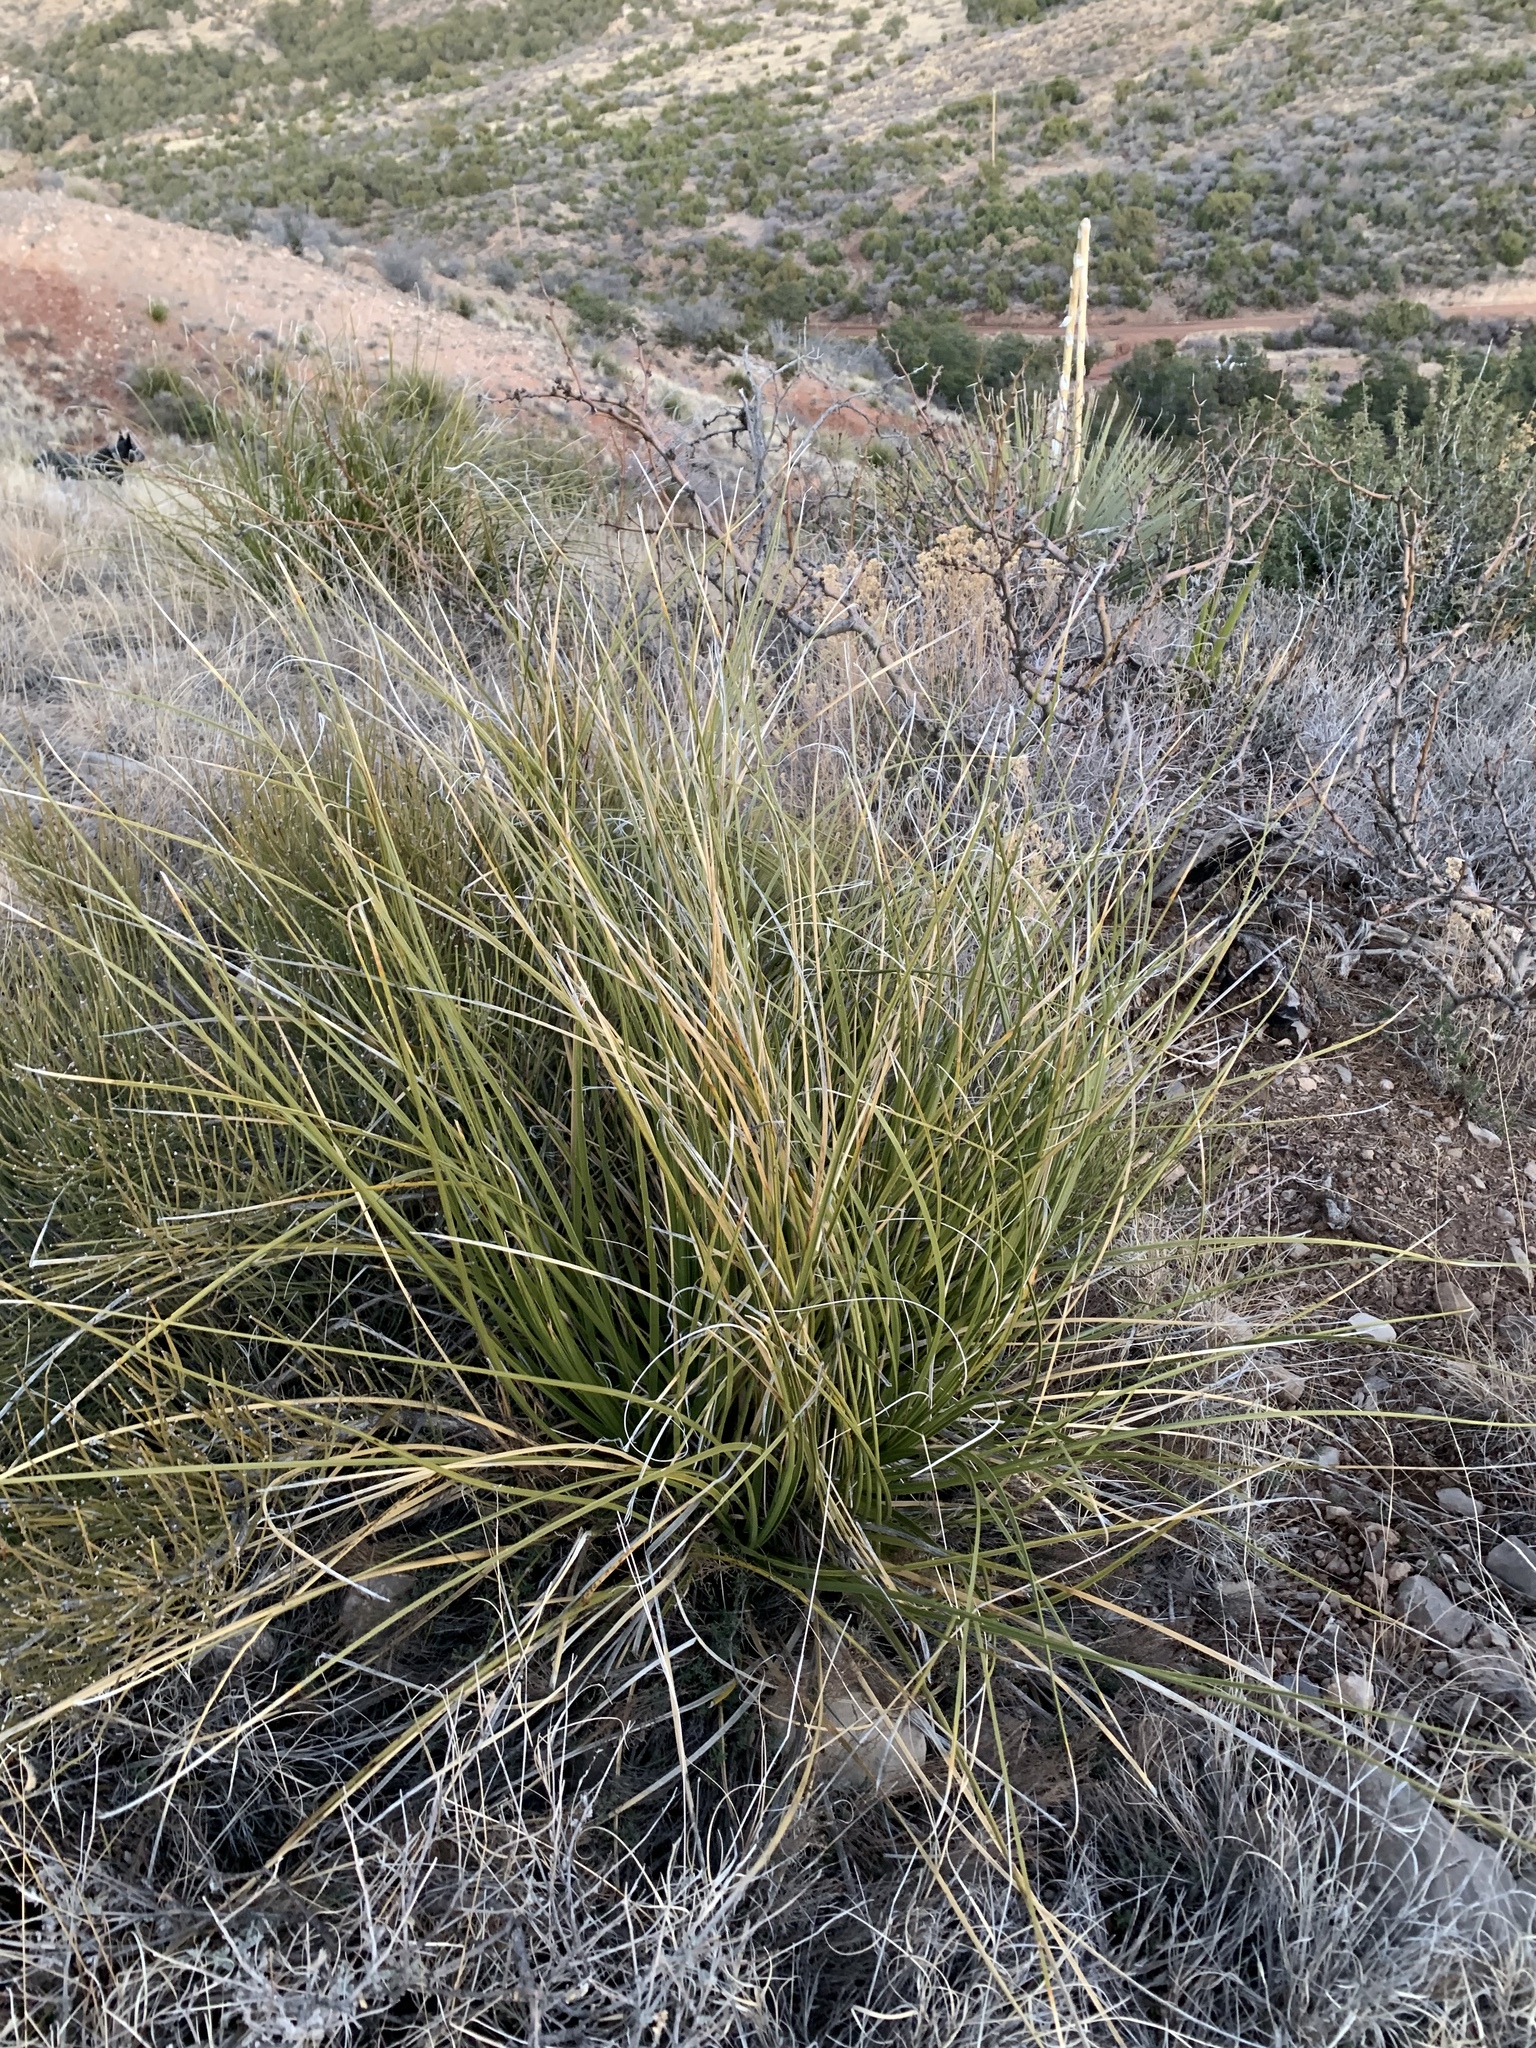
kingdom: Plantae
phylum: Tracheophyta
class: Liliopsida
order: Asparagales
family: Asparagaceae
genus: Nolina
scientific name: Nolina texana
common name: Texas sacahuiste
